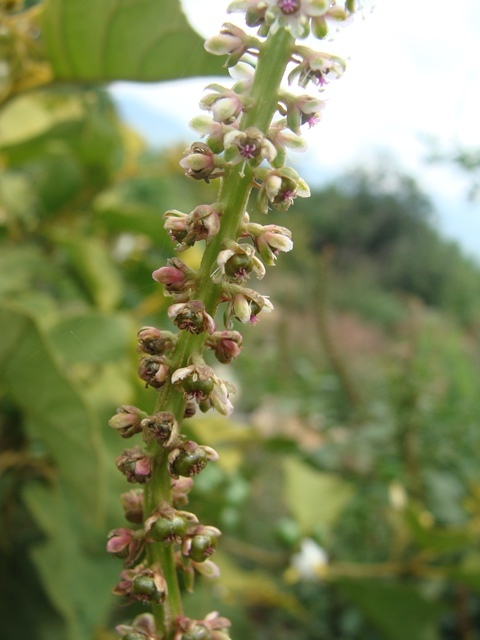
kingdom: Plantae
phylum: Tracheophyta
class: Magnoliopsida
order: Caryophyllales
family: Phytolaccaceae
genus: Phytolacca
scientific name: Phytolacca icosandra
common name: Button pokeweed
